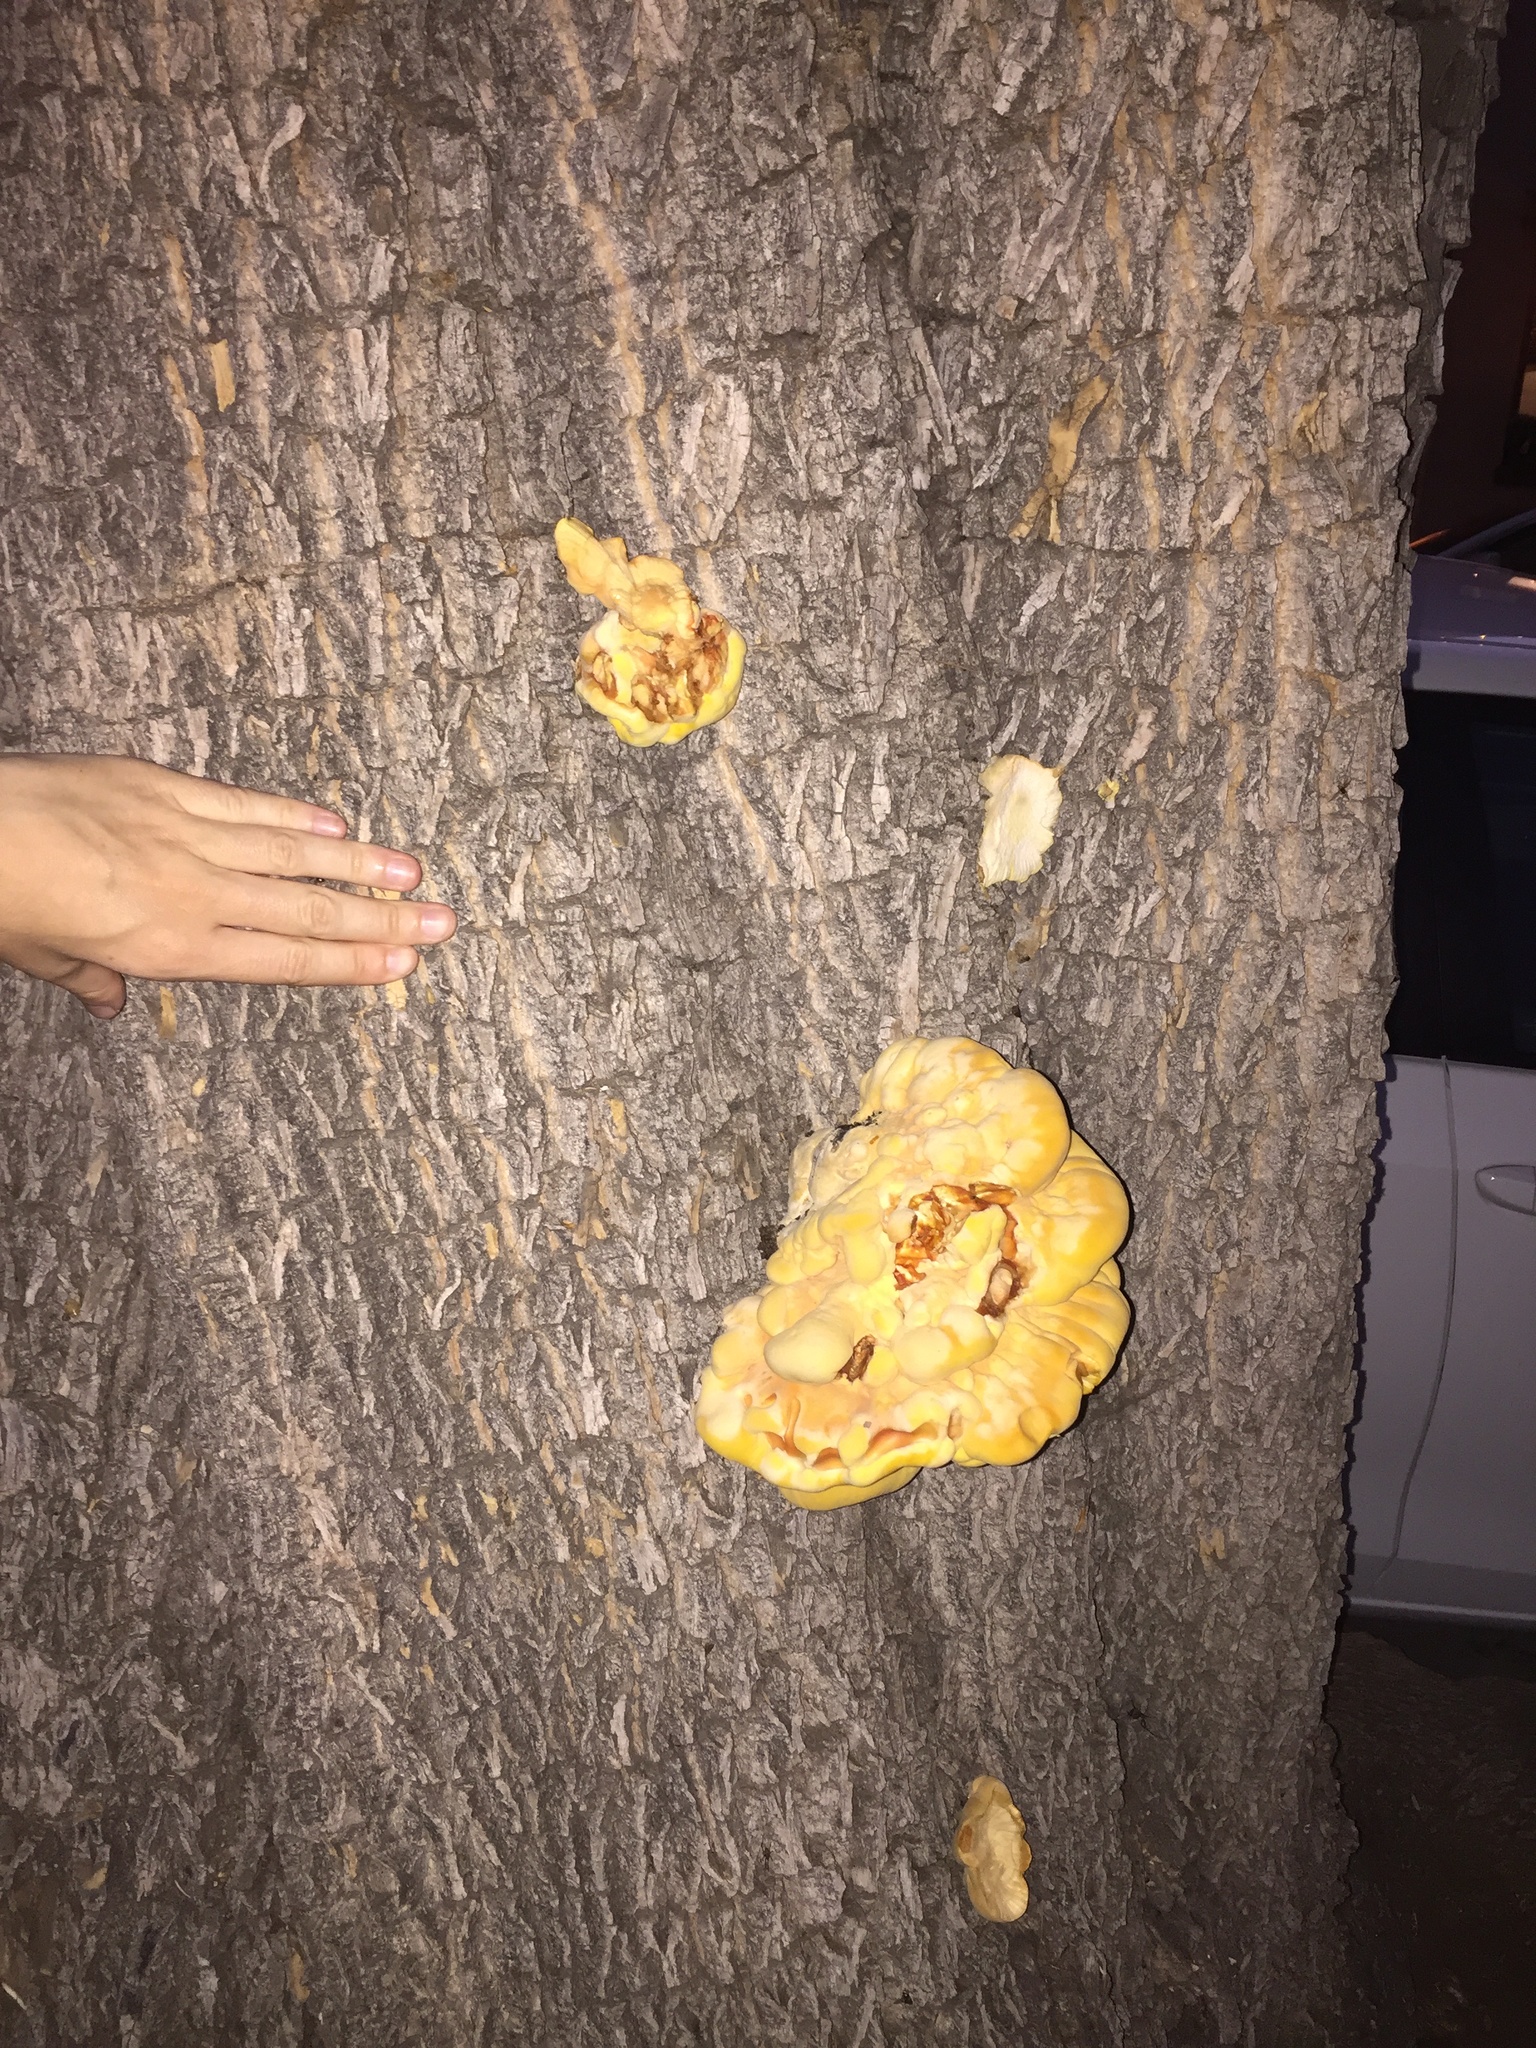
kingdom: Fungi
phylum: Basidiomycota
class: Agaricomycetes
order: Polyporales
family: Laetiporaceae
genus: Laetiporus
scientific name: Laetiporus gilbertsonii
